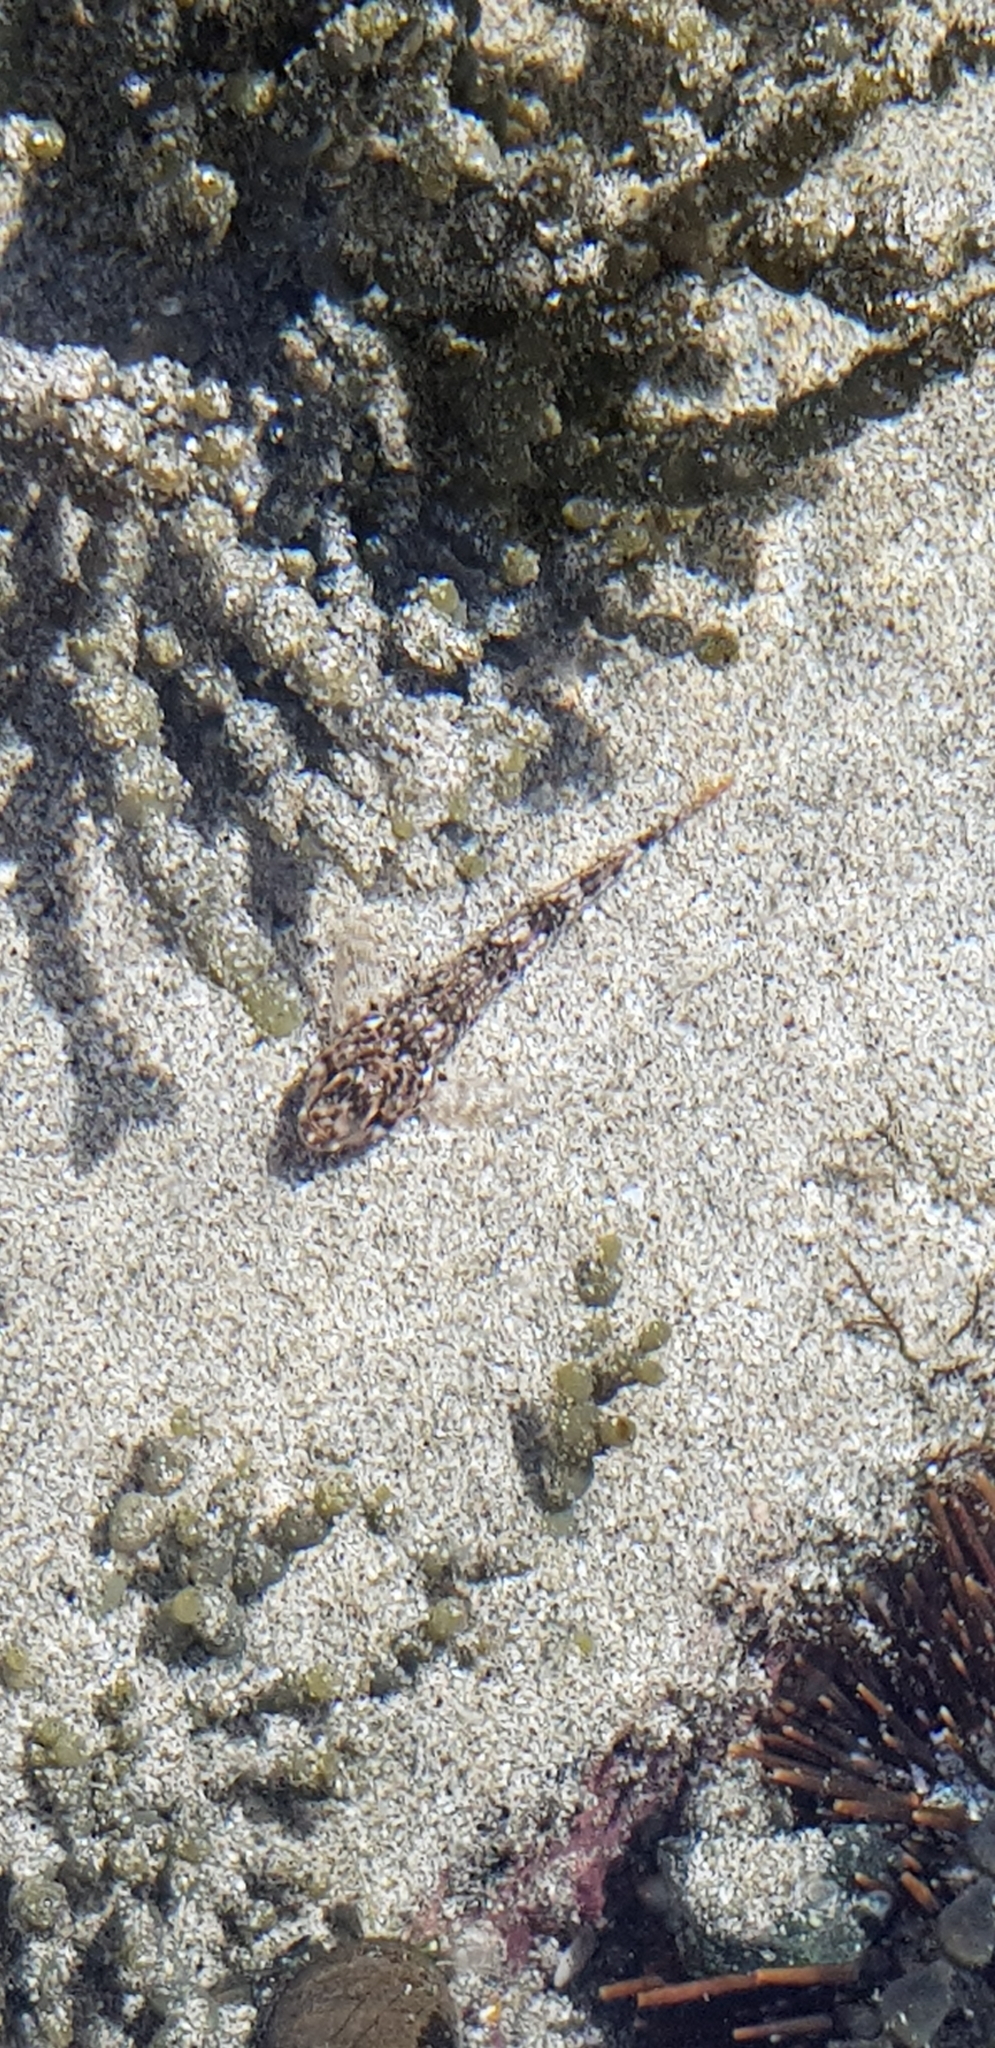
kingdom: Animalia
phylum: Chordata
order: Perciformes
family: Tripterygiidae
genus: Bellapiscis
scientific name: Bellapiscis medius
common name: Twister
